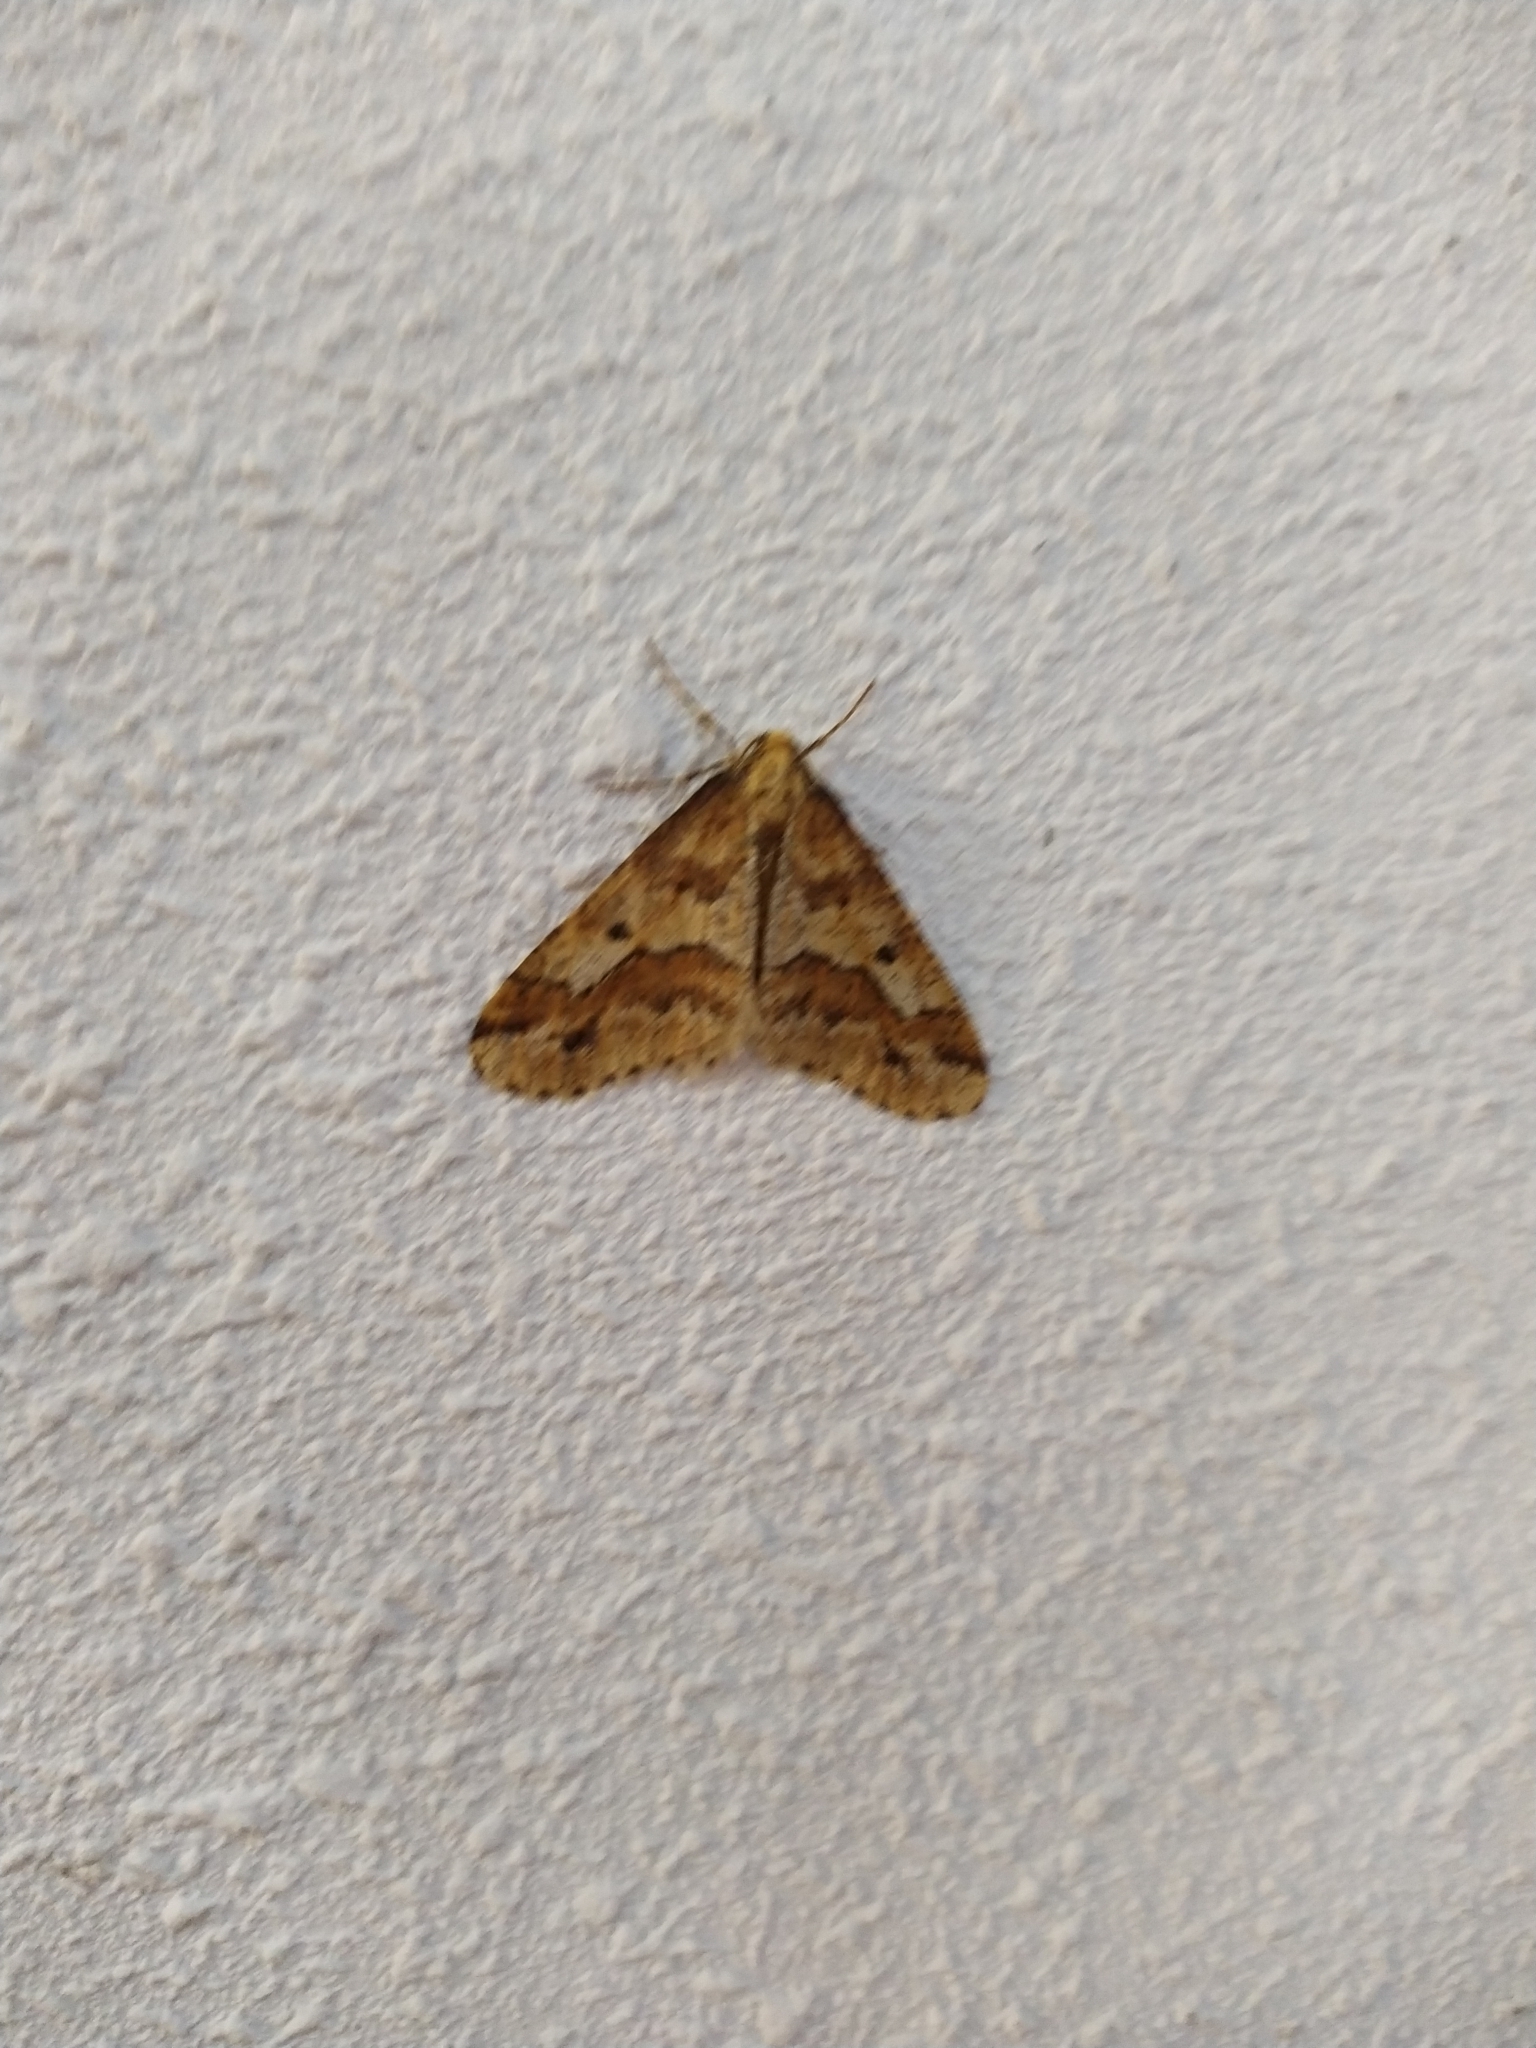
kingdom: Animalia
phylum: Arthropoda
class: Insecta
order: Lepidoptera
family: Geometridae
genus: Erannis
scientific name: Erannis defoliaria
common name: Mottled umber
